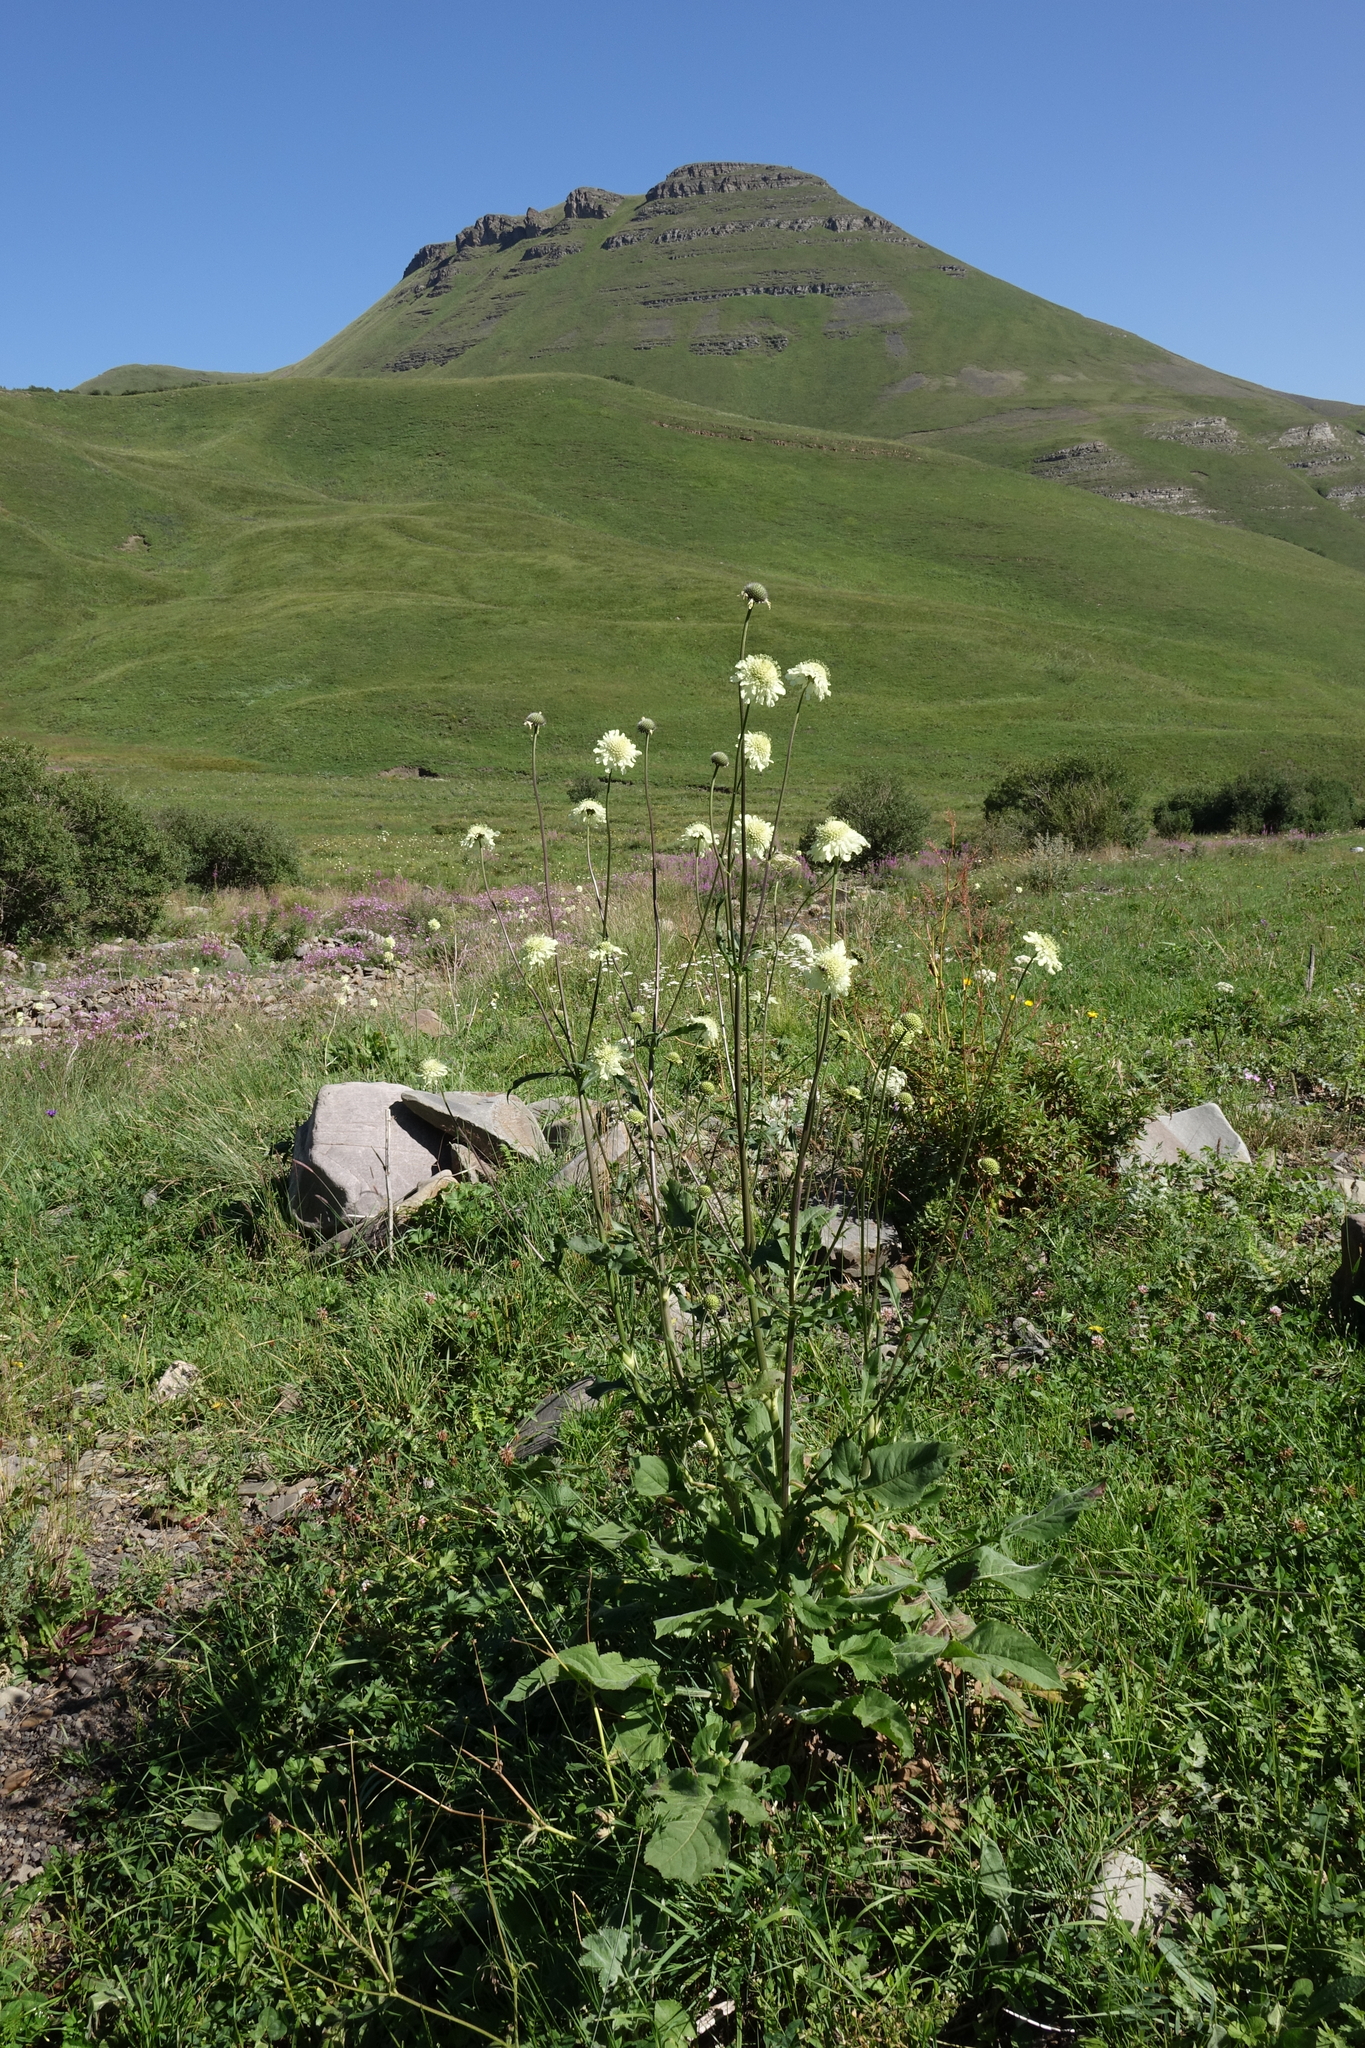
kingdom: Plantae
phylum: Tracheophyta
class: Magnoliopsida
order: Dipsacales
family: Caprifoliaceae
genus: Cephalaria
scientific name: Cephalaria gigantea
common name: Tatarian cephalaria
